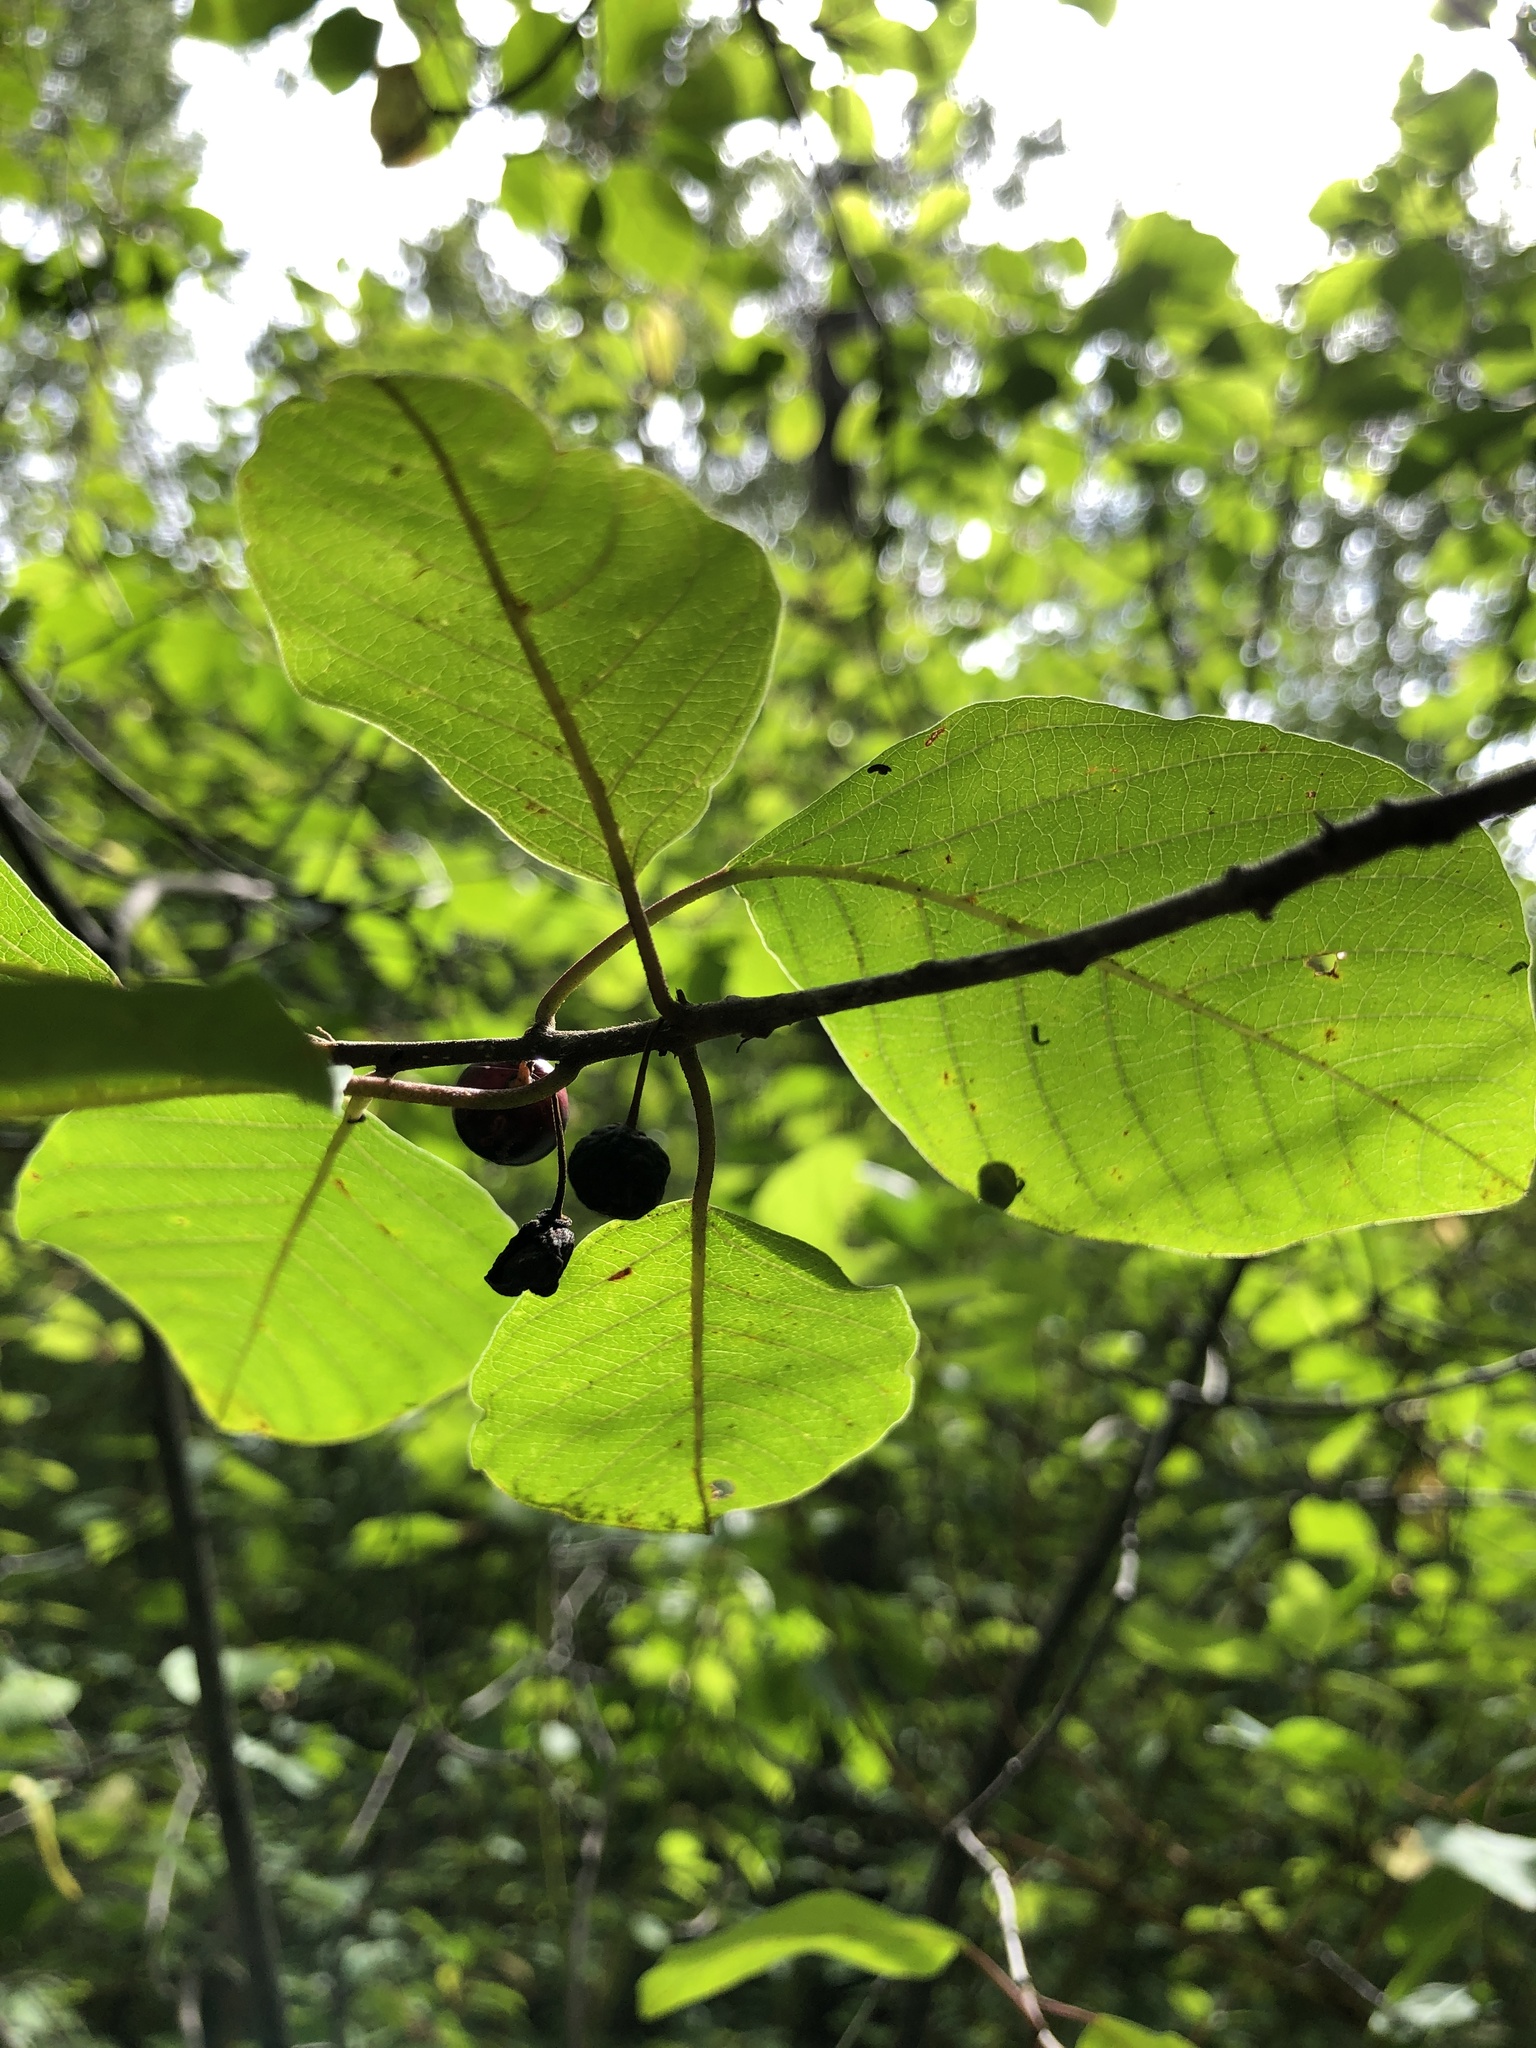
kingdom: Plantae
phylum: Tracheophyta
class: Magnoliopsida
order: Rosales
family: Rhamnaceae
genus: Frangula
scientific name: Frangula alnus
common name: Alder buckthorn
